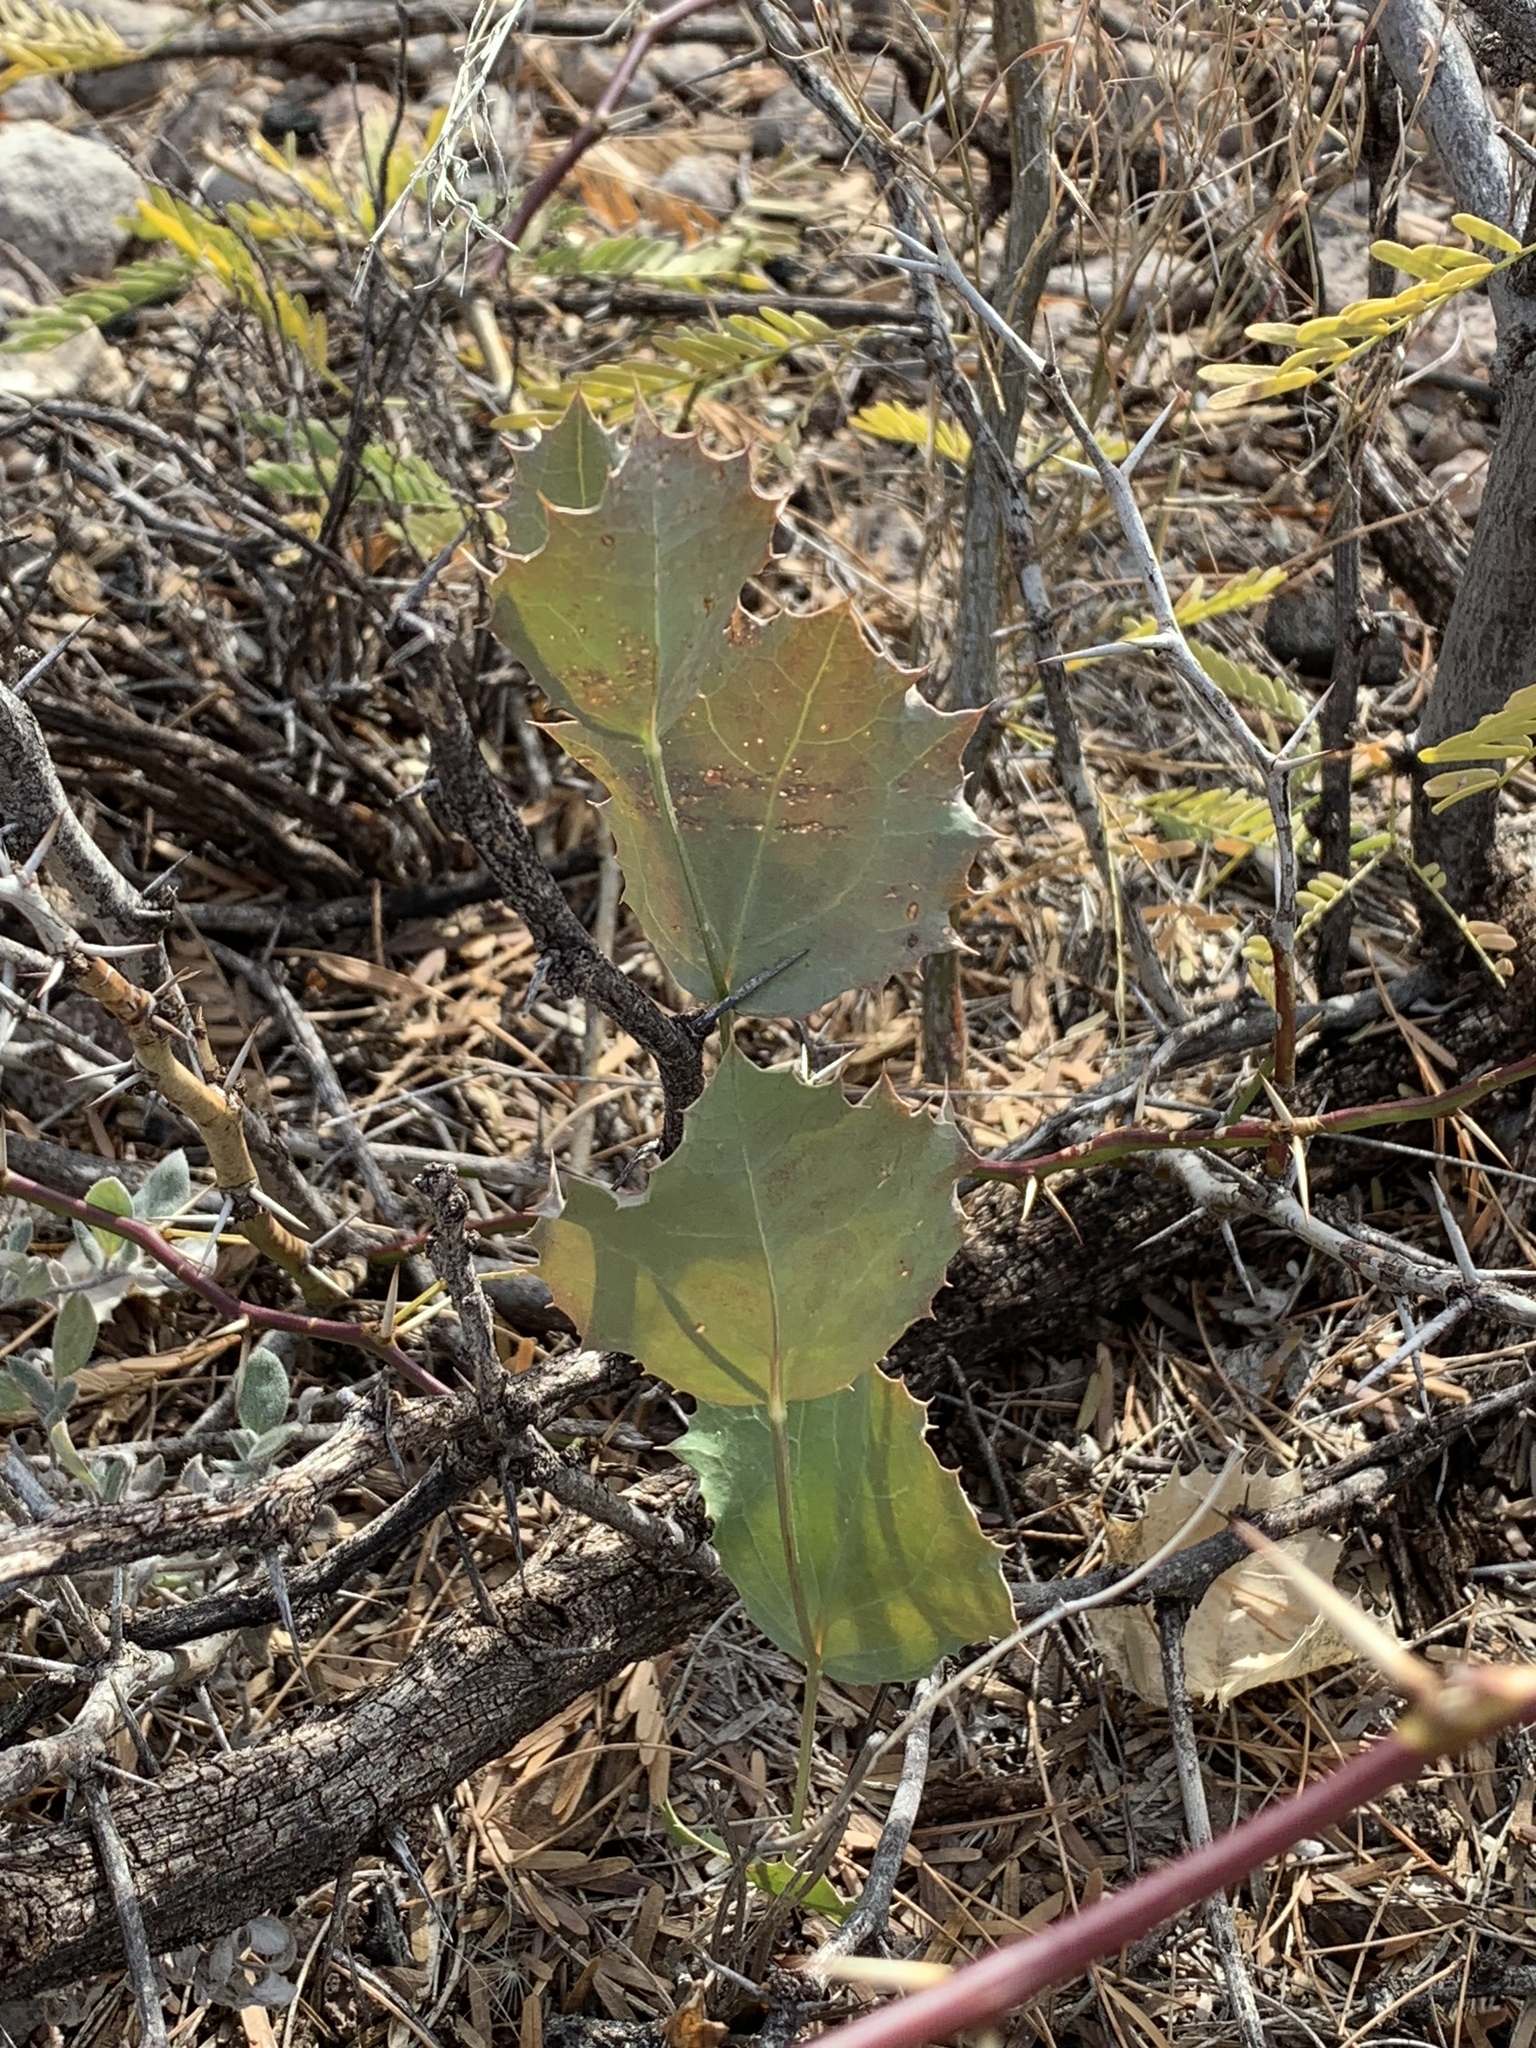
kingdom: Plantae
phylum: Tracheophyta
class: Magnoliopsida
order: Asterales
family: Asteraceae
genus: Acourtia
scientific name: Acourtia nana
